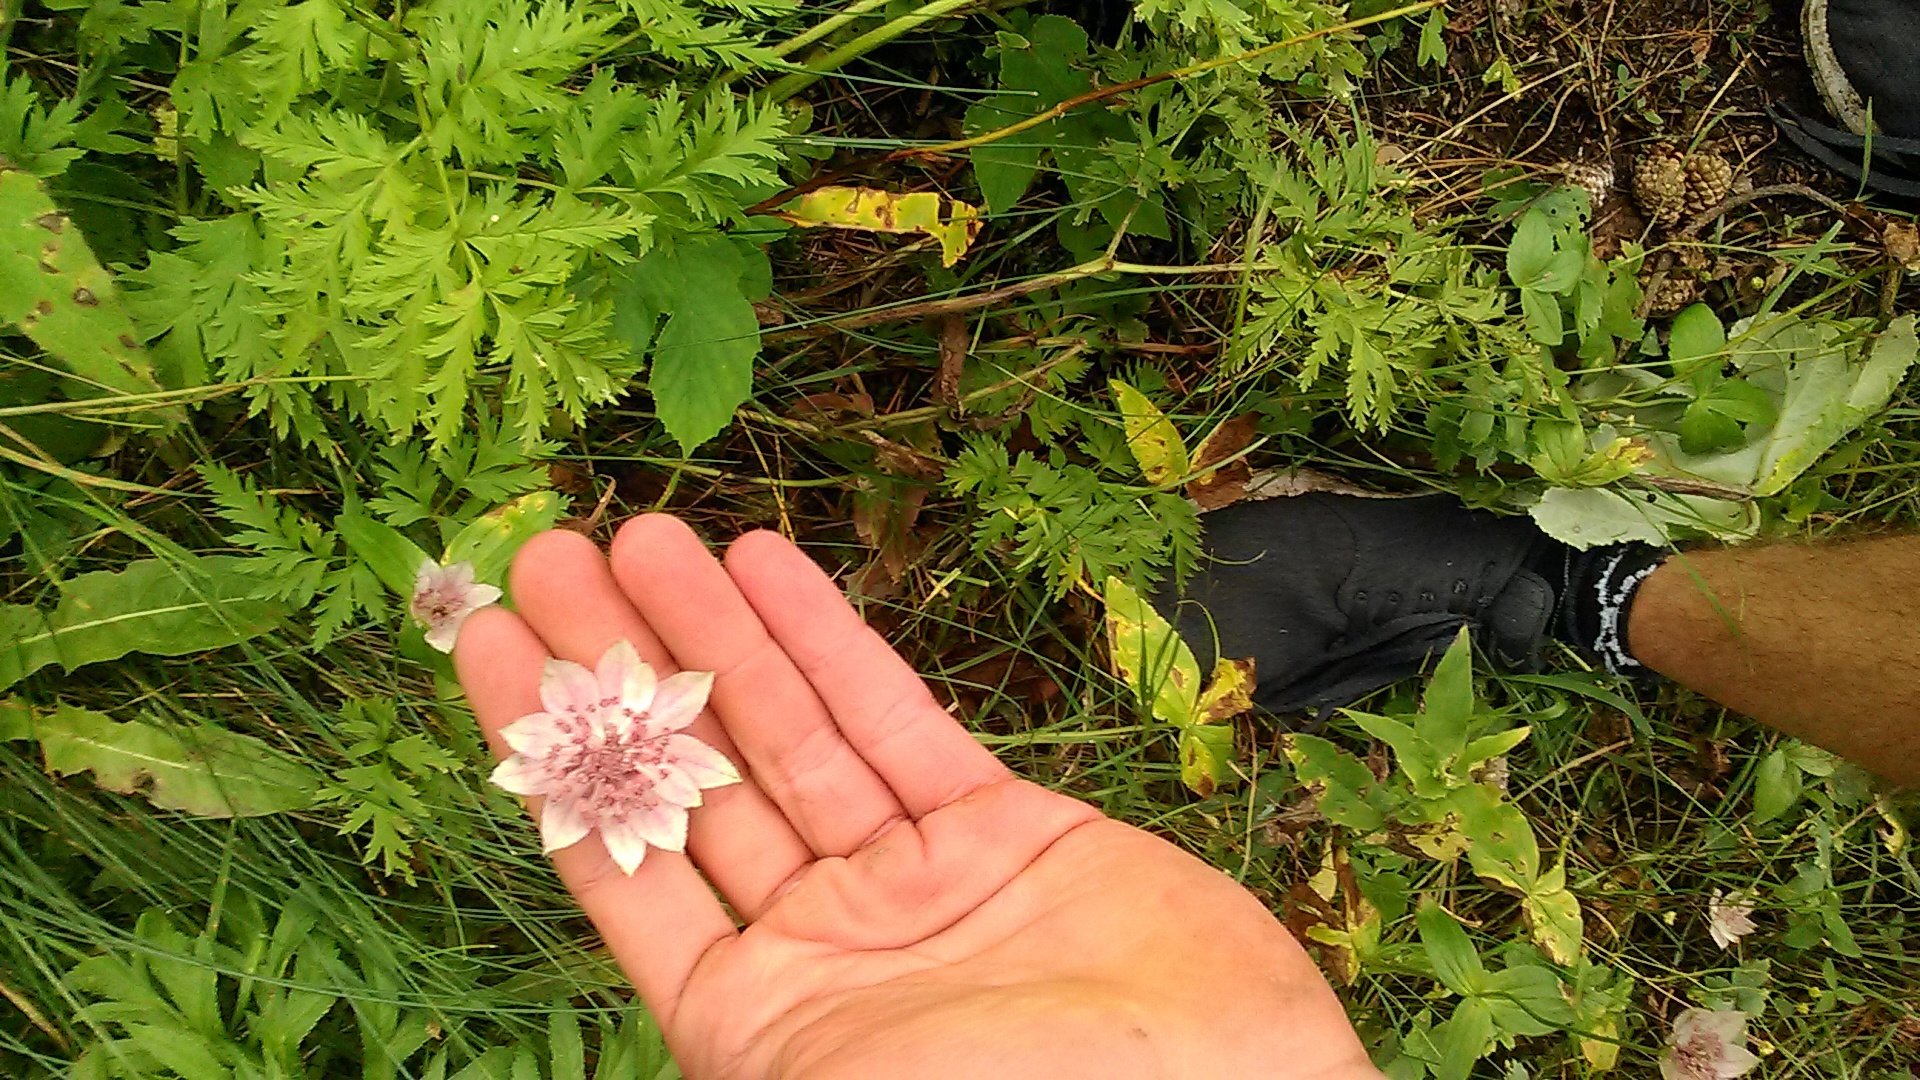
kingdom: Plantae
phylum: Tracheophyta
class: Magnoliopsida
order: Apiales
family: Apiaceae
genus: Astrantia
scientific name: Astrantia maxima
